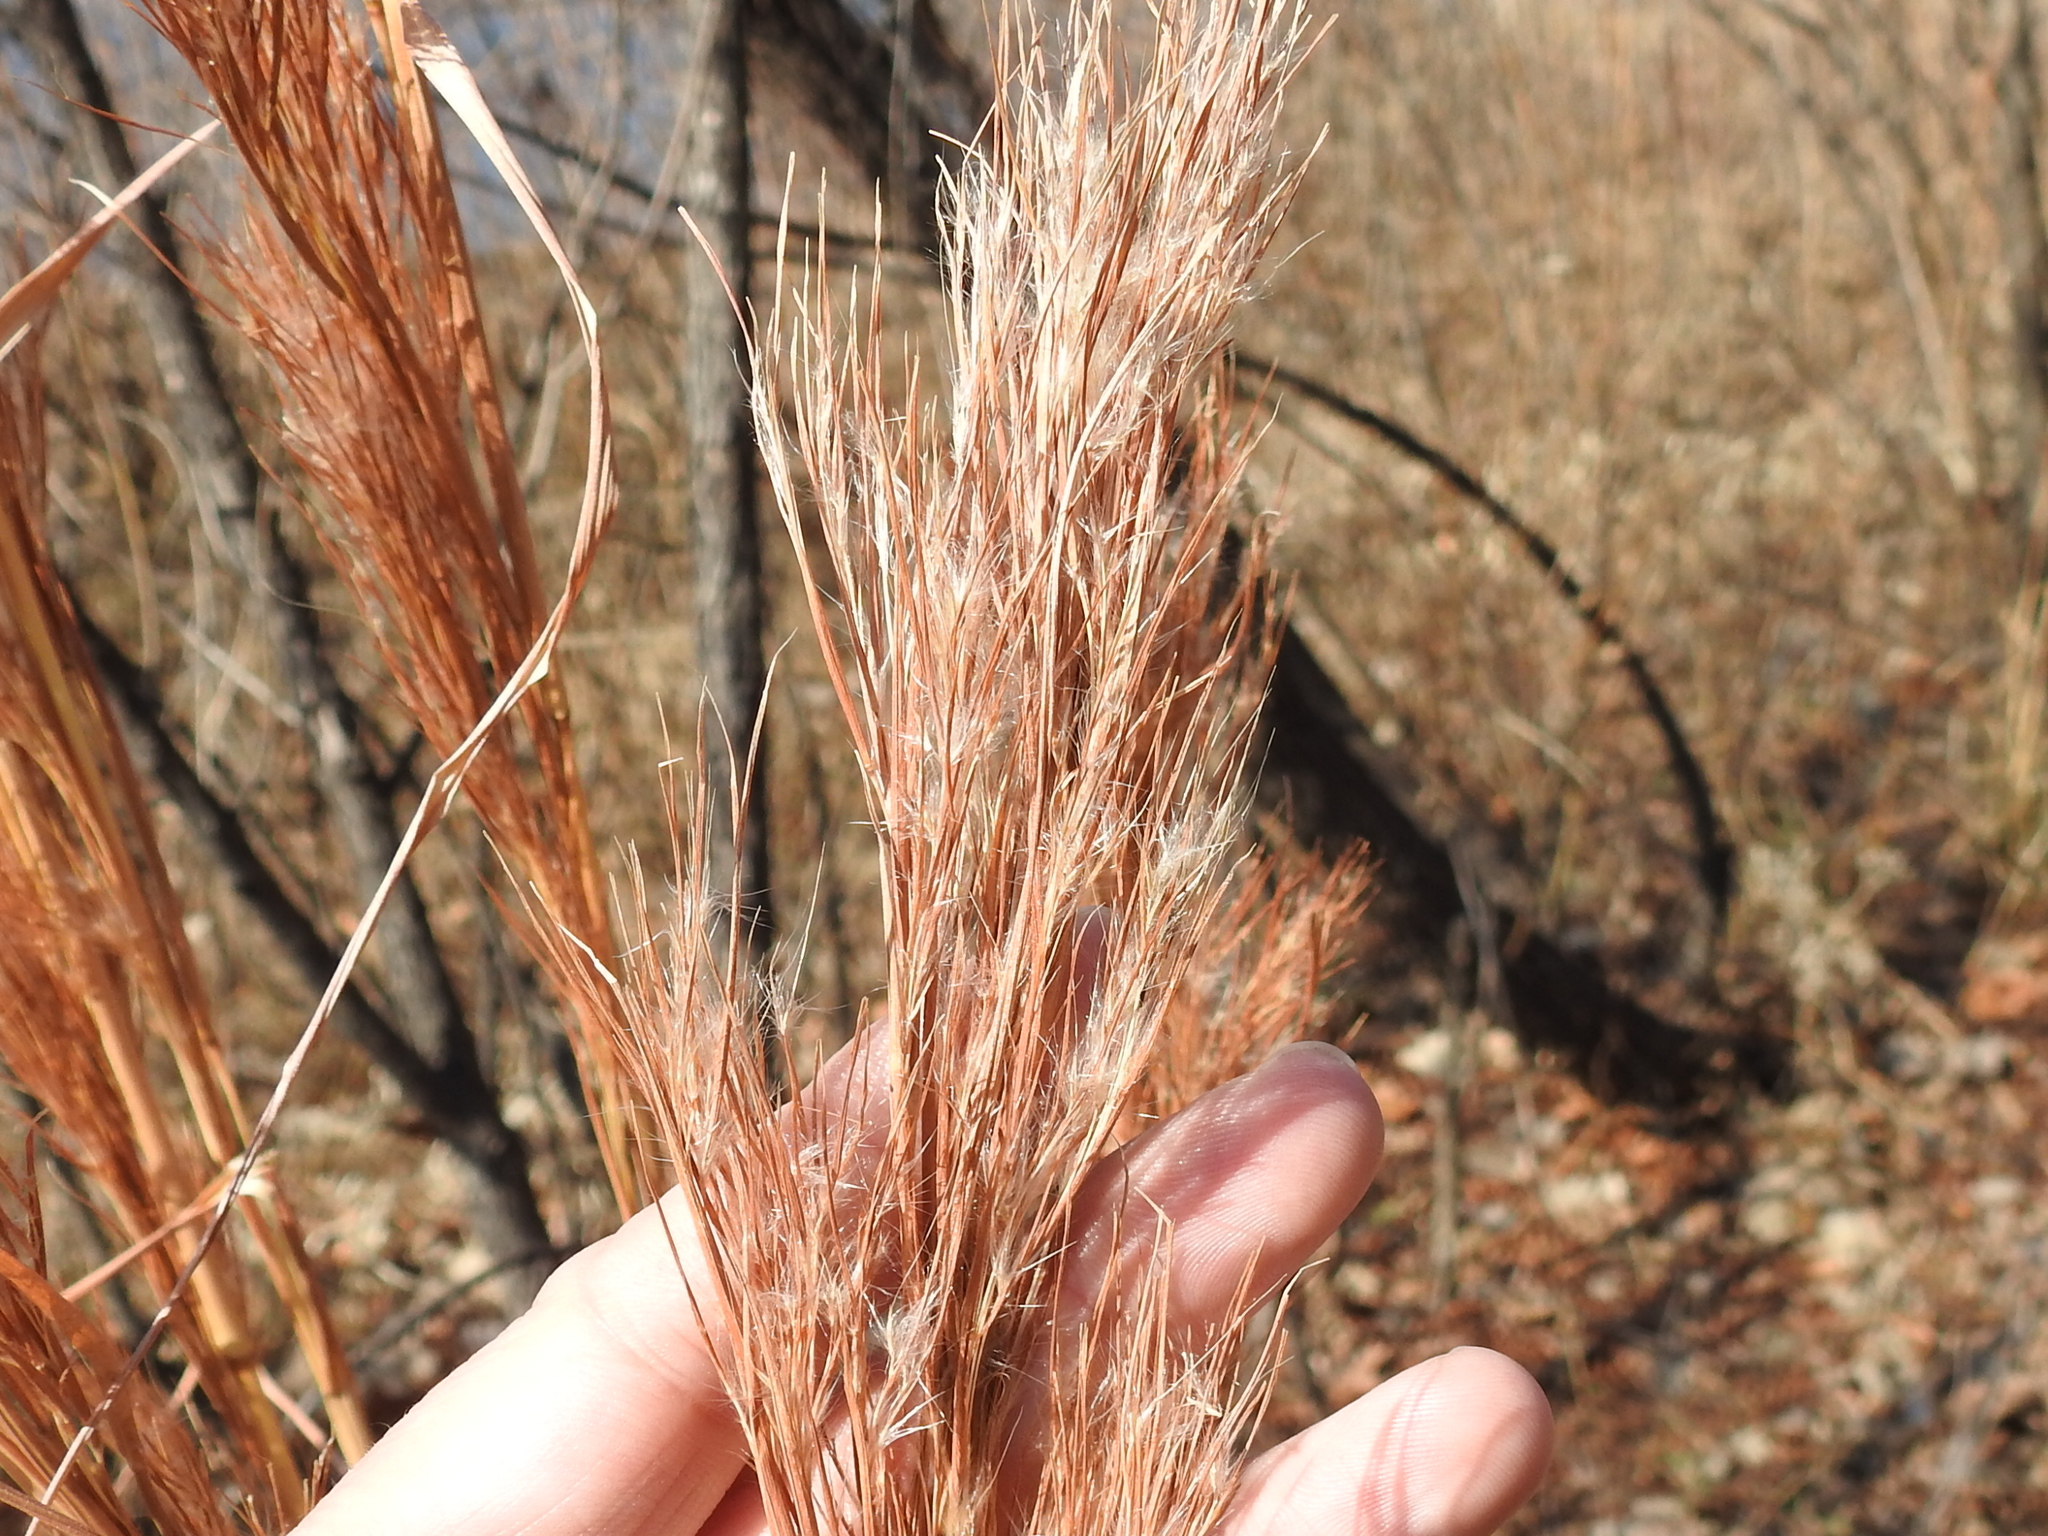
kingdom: Plantae
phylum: Tracheophyta
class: Liliopsida
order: Poales
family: Poaceae
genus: Andropogon
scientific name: Andropogon tenuispatheus
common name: Bushy bluestem
